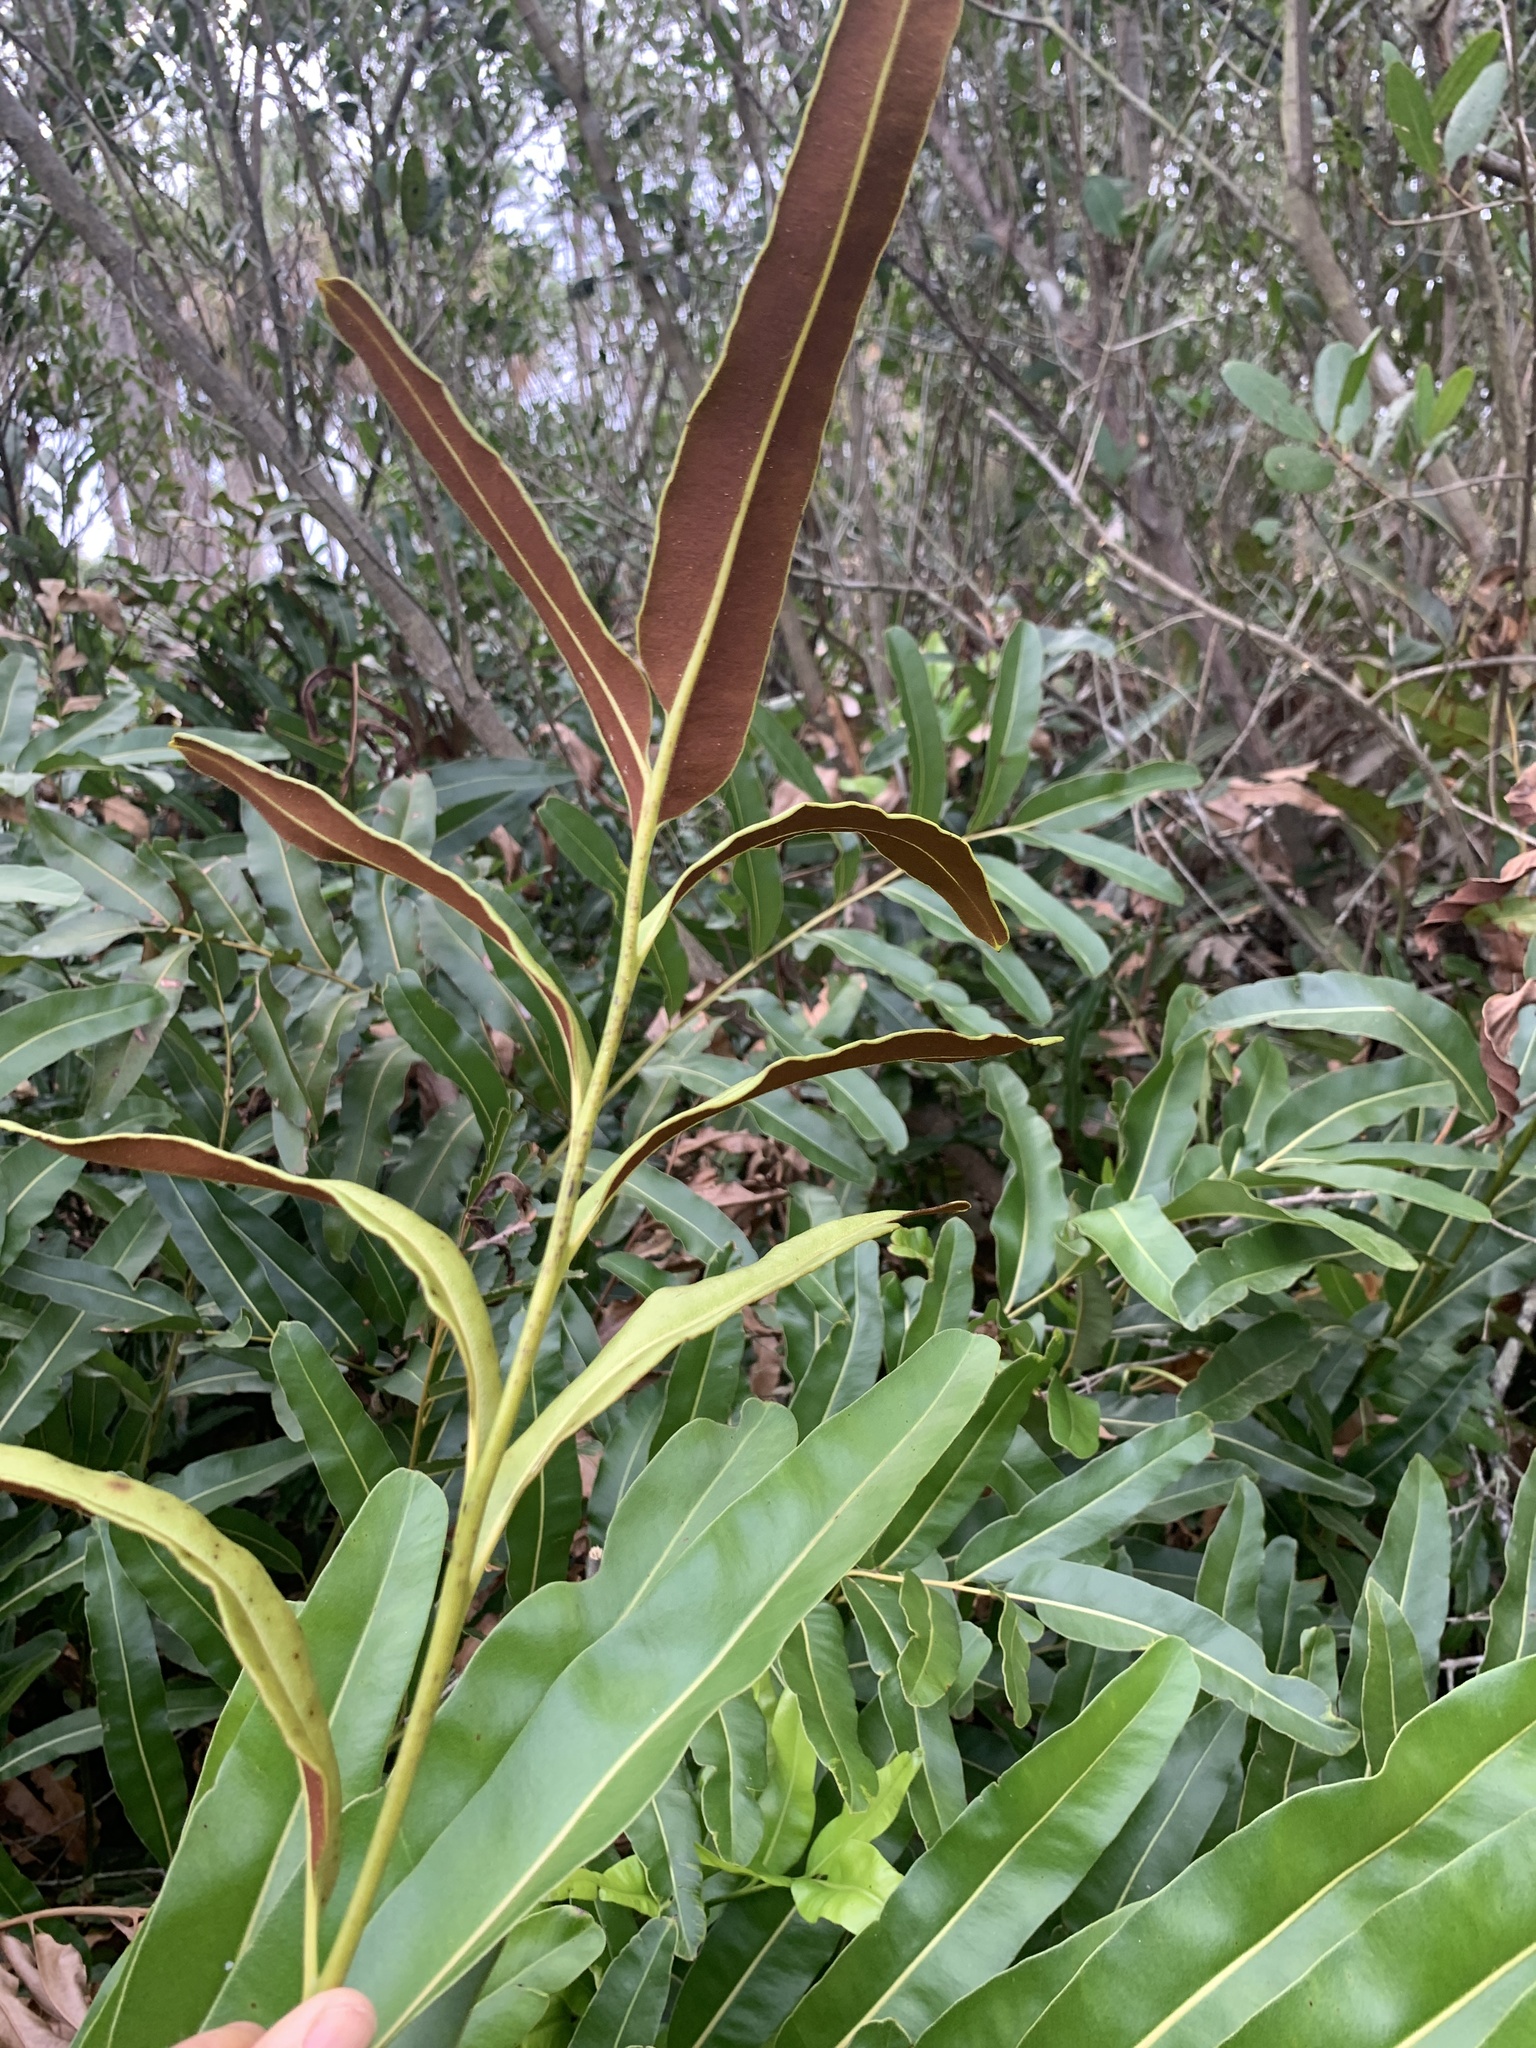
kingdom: Plantae
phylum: Tracheophyta
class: Polypodiopsida
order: Polypodiales
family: Pteridaceae
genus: Acrostichum
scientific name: Acrostichum aureum
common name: Leather fern
